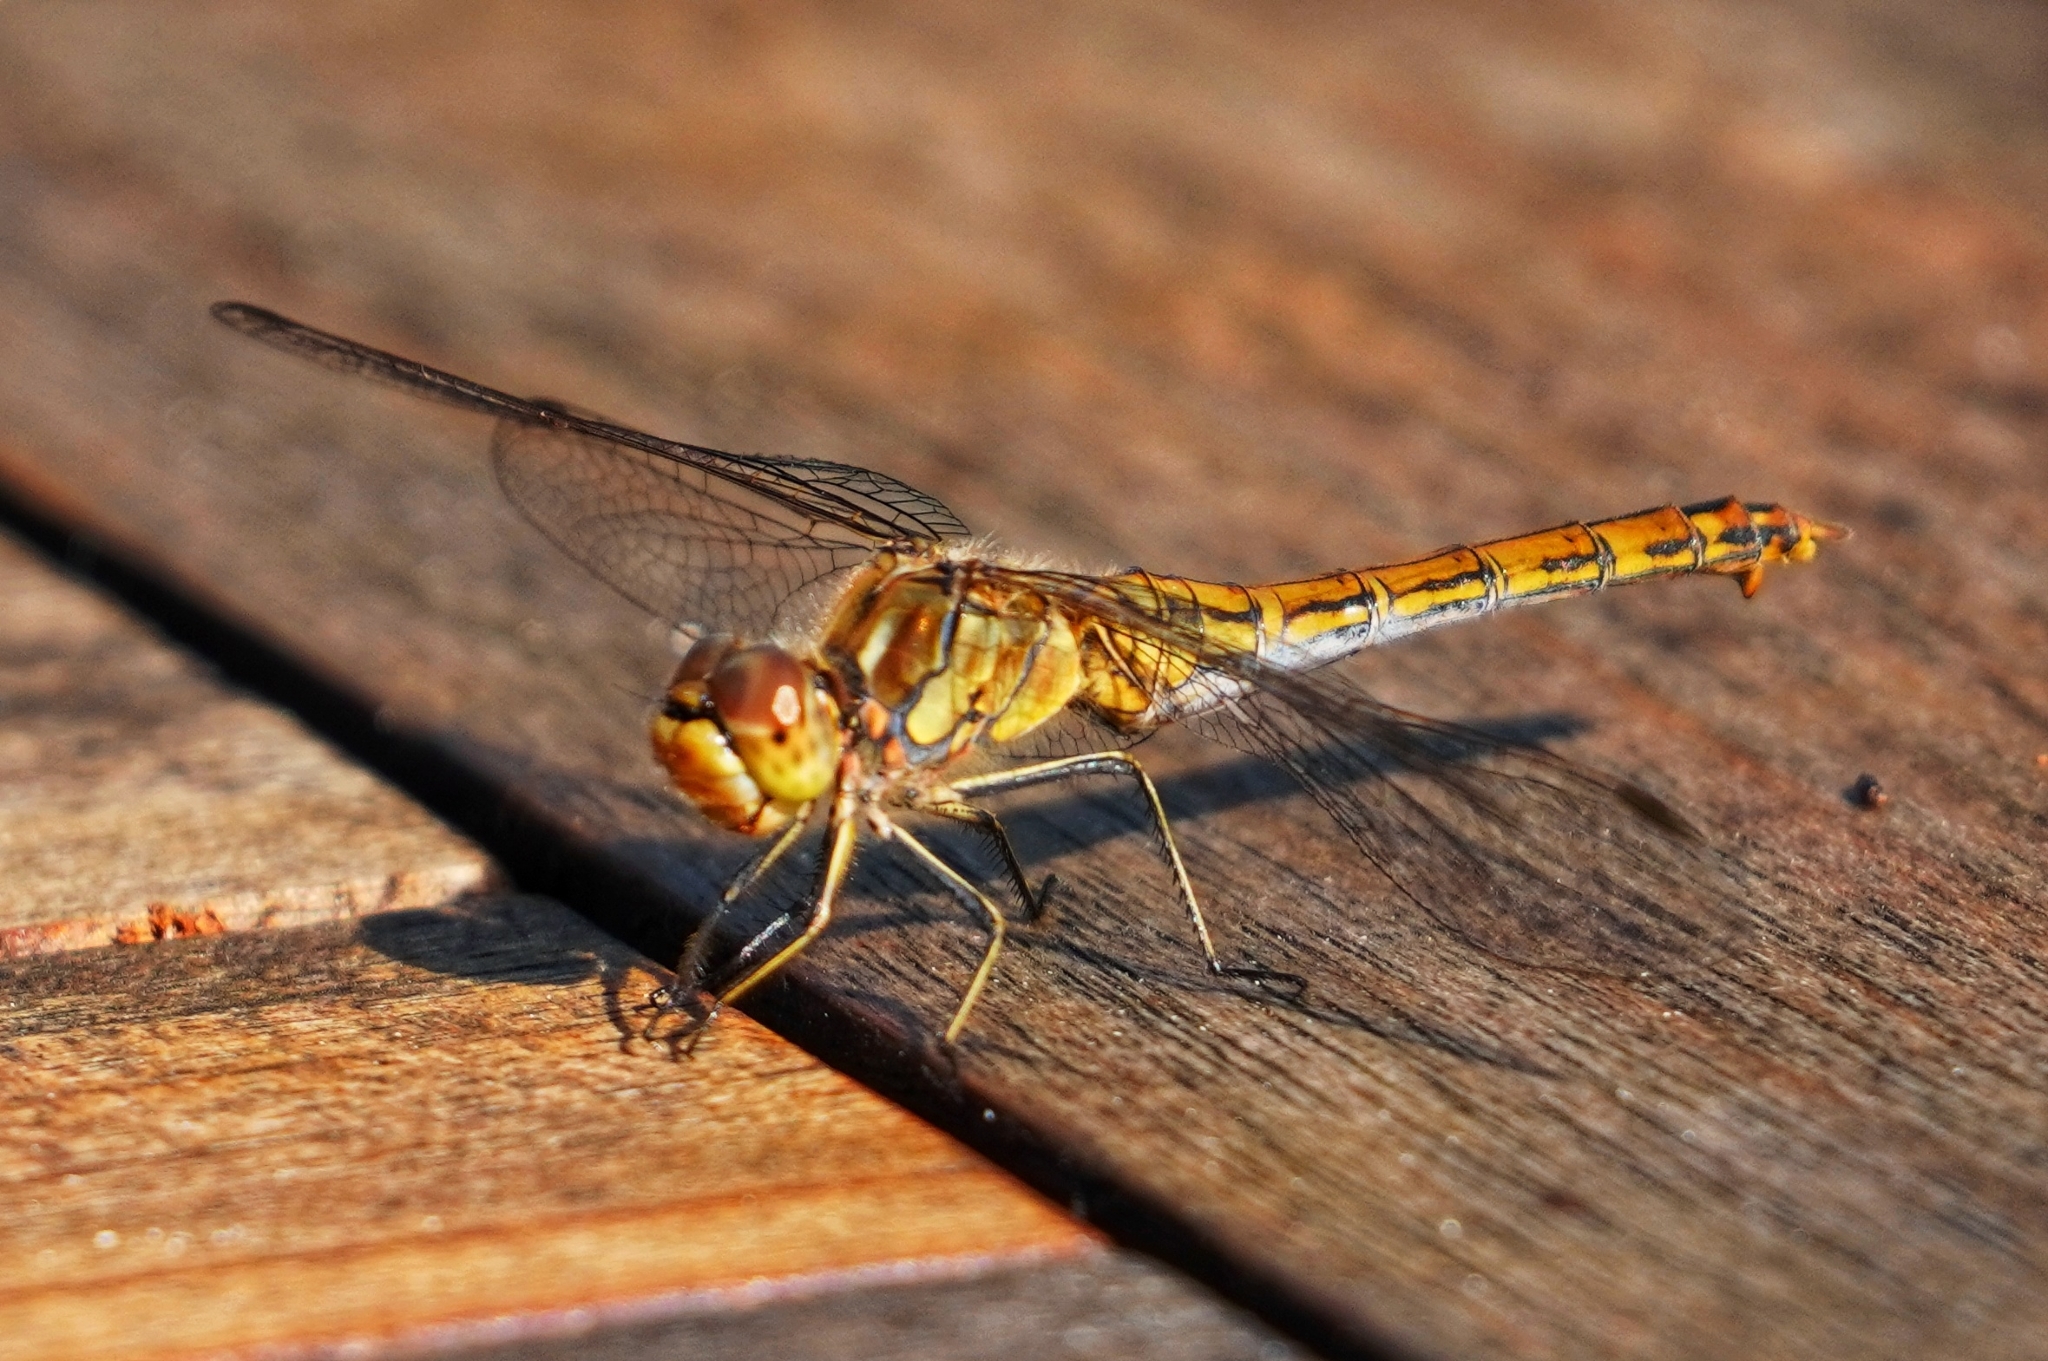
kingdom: Animalia
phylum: Arthropoda
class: Insecta
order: Odonata
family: Libellulidae
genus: Sympetrum
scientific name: Sympetrum vulgatum
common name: Vagrant darter
